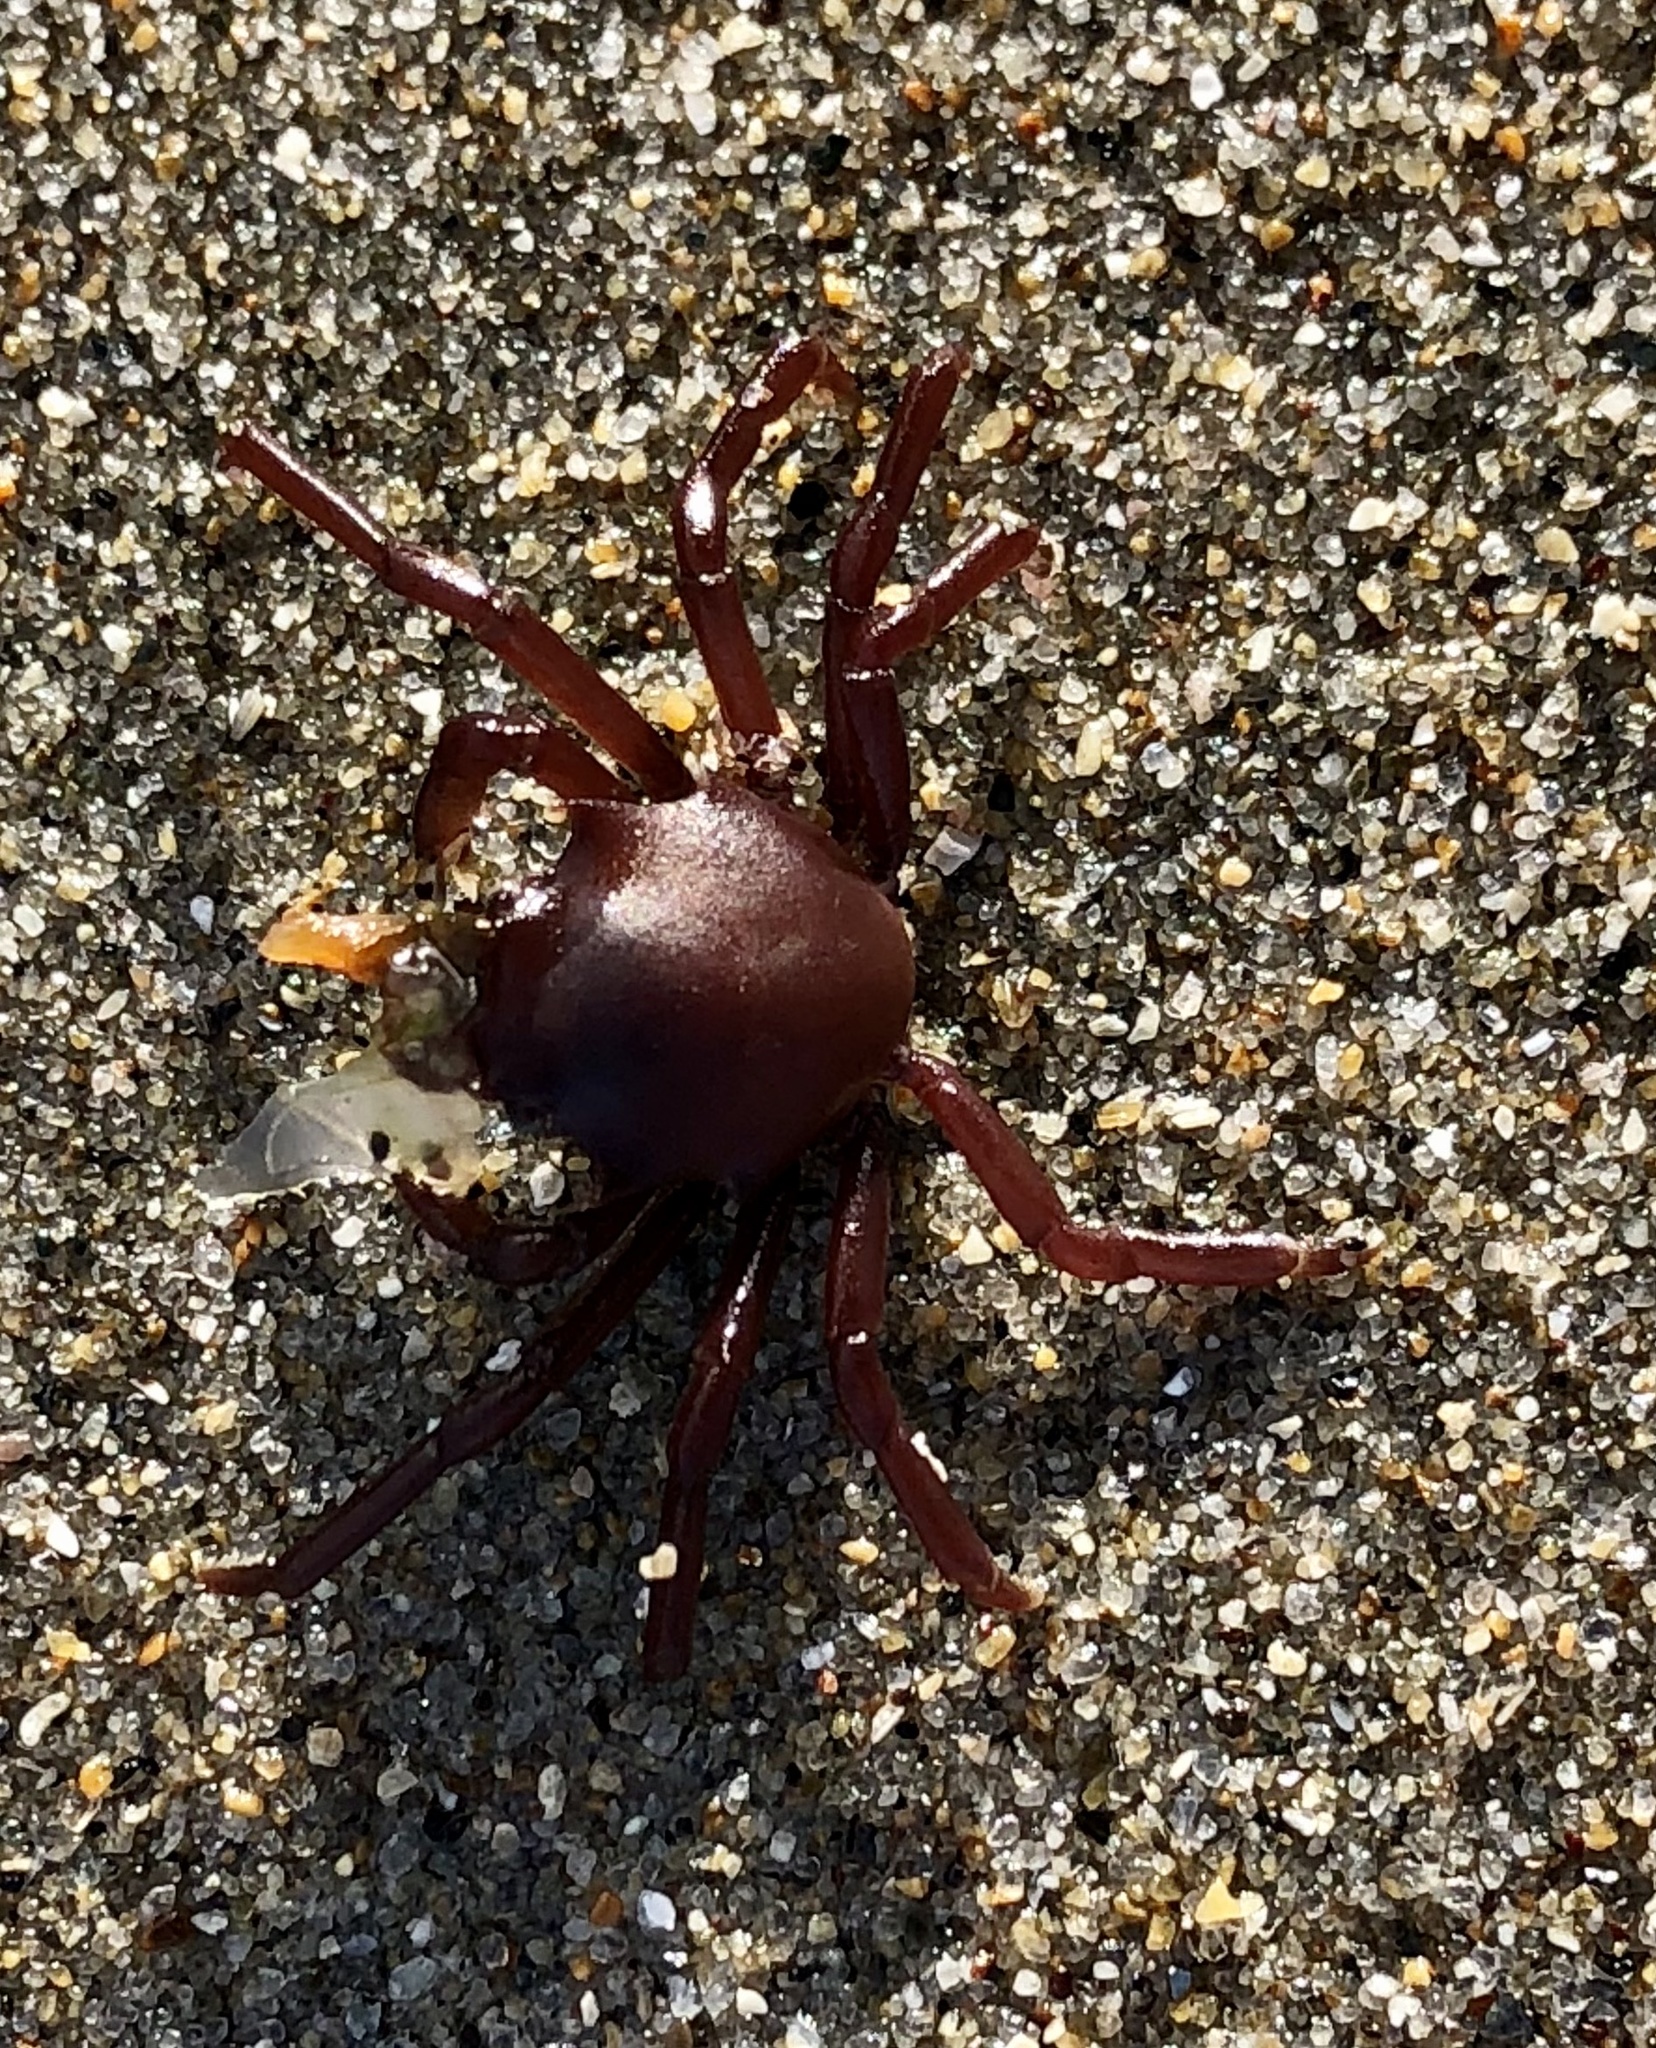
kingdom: Animalia
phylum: Arthropoda
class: Malacostraca
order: Decapoda
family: Epialtidae
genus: Pugettia
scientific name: Pugettia producta
